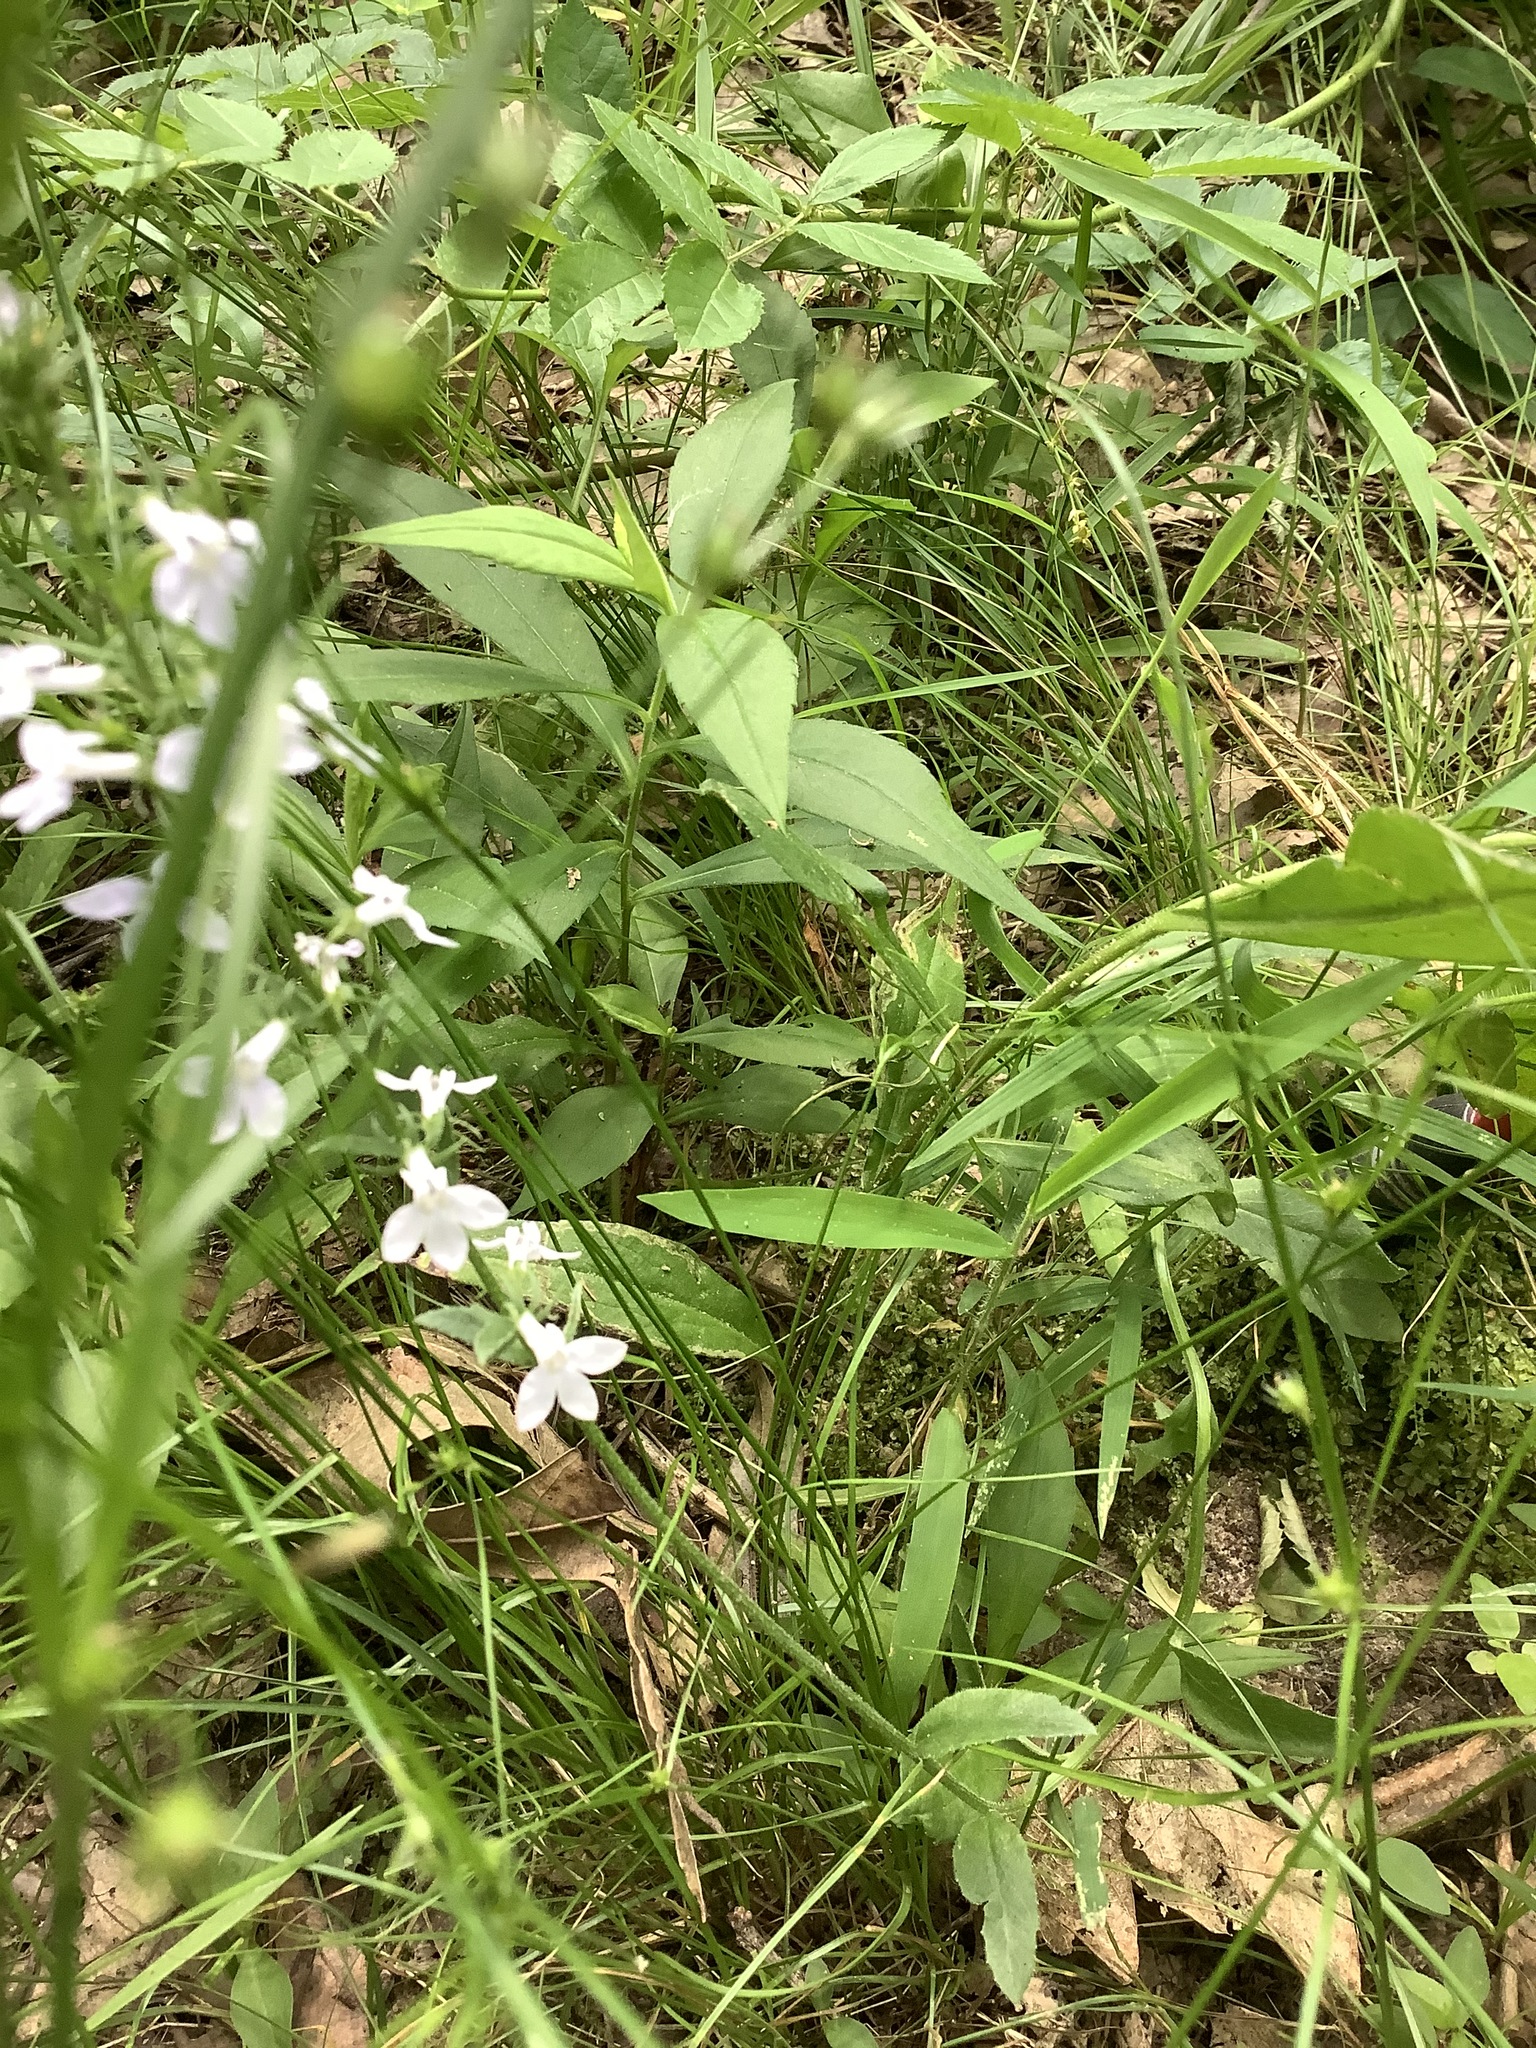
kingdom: Plantae
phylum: Tracheophyta
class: Magnoliopsida
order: Asterales
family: Campanulaceae
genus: Lobelia
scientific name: Lobelia spicata
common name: Pale-spike lobelia
